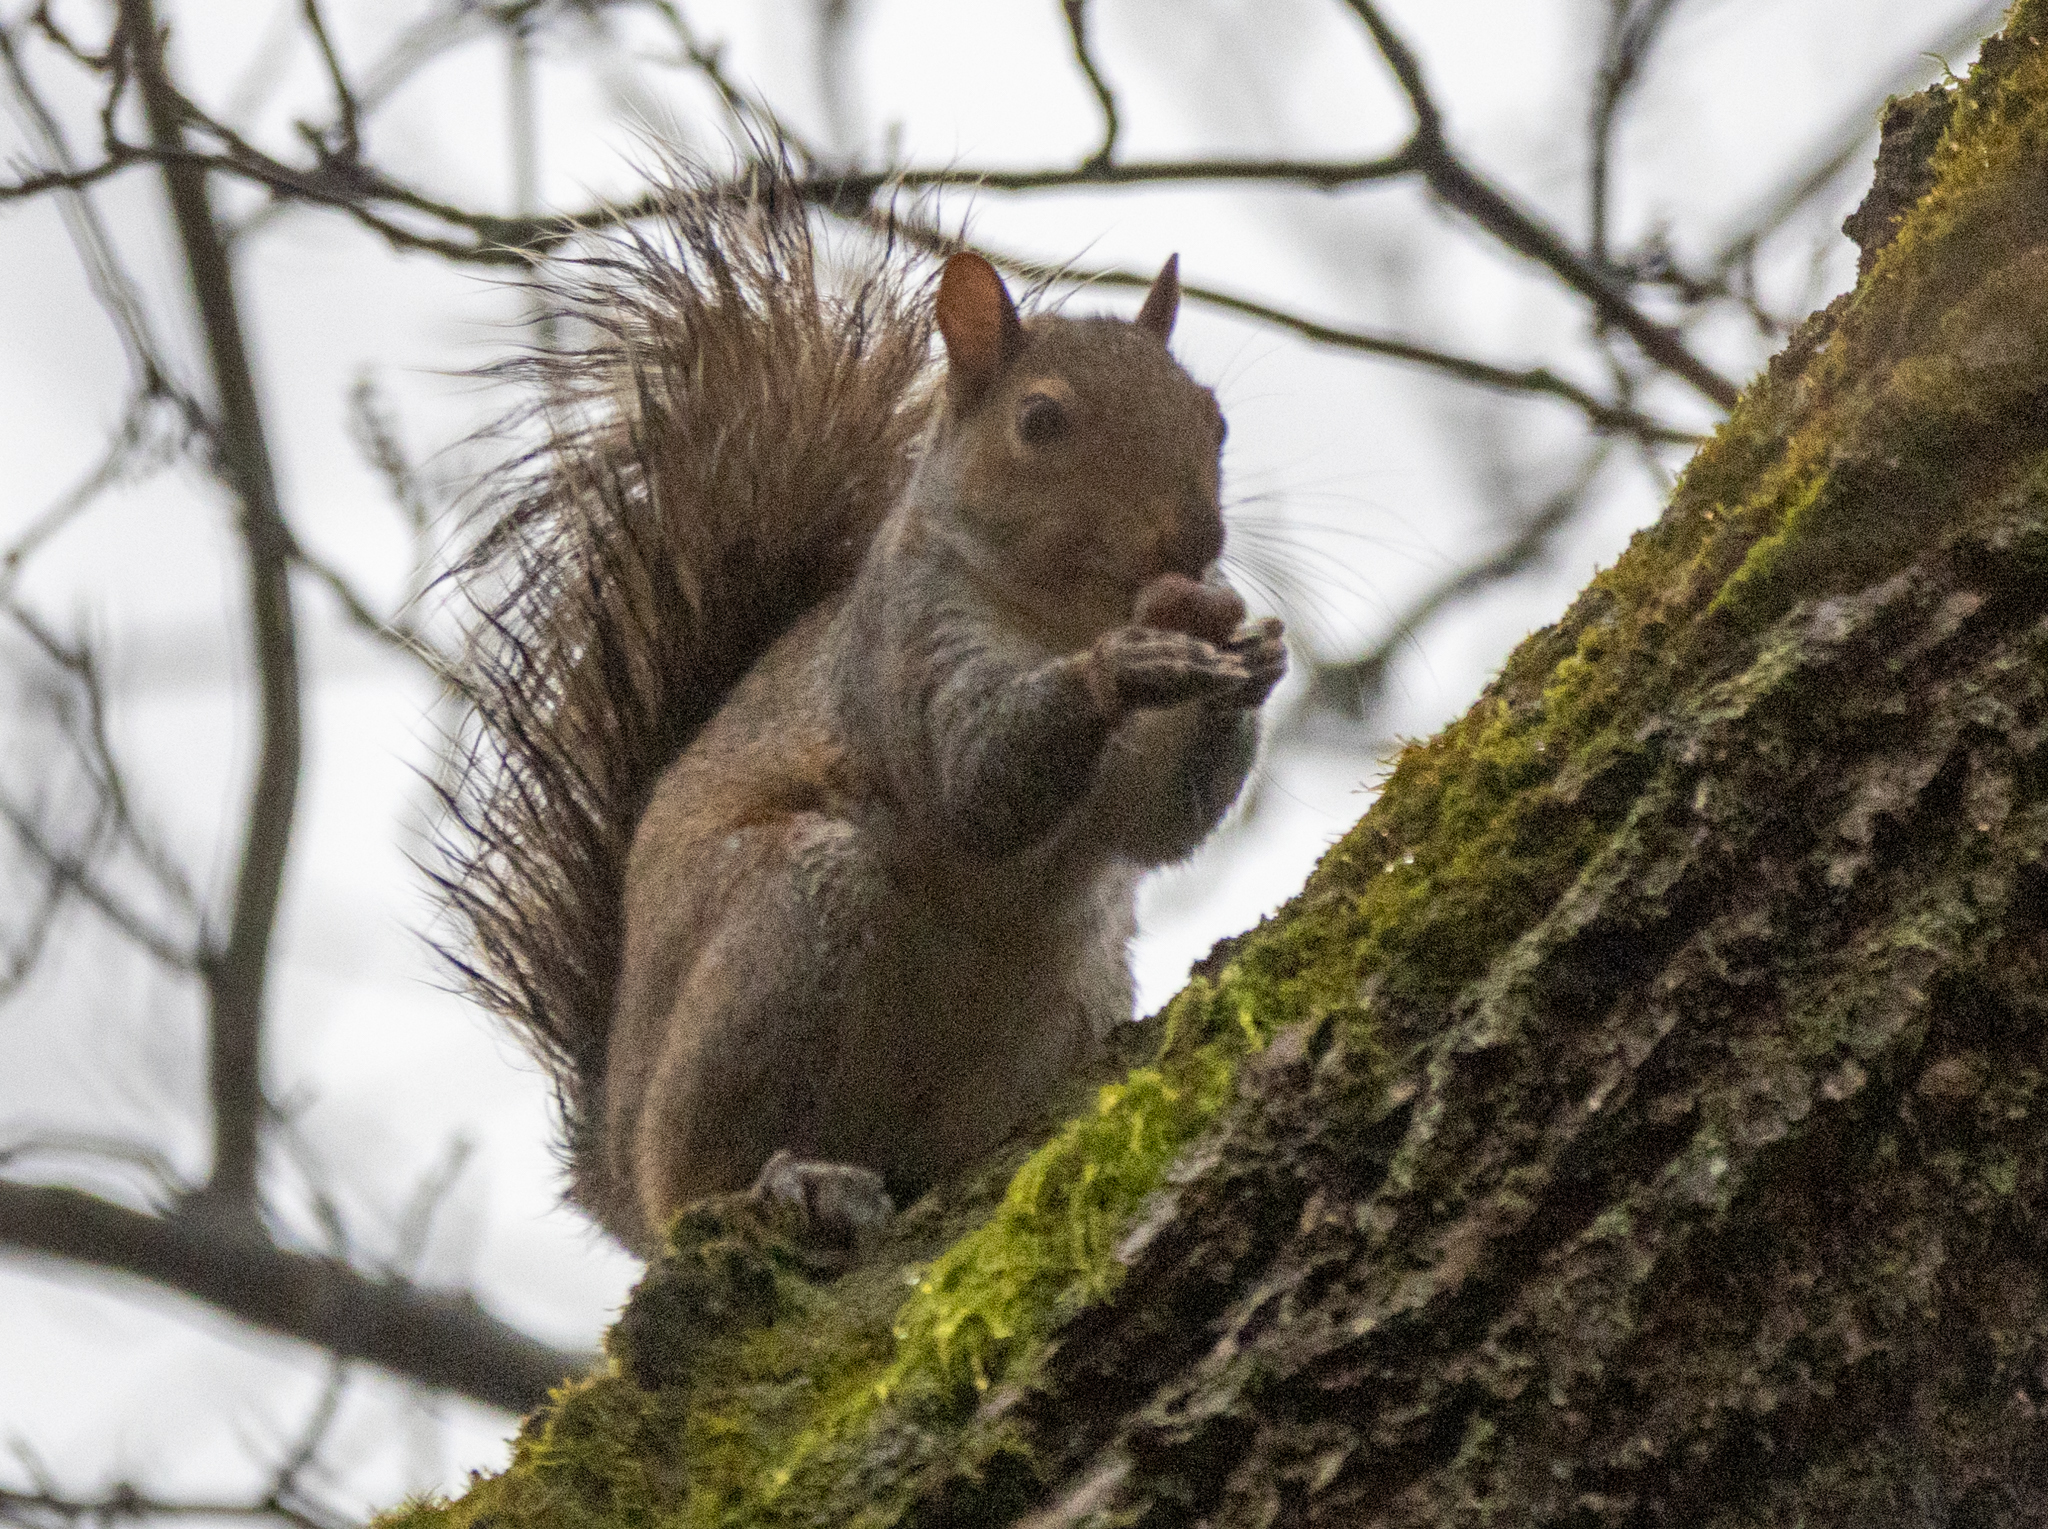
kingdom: Animalia
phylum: Chordata
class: Mammalia
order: Rodentia
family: Sciuridae
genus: Sciurus
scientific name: Sciurus carolinensis
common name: Eastern gray squirrel
